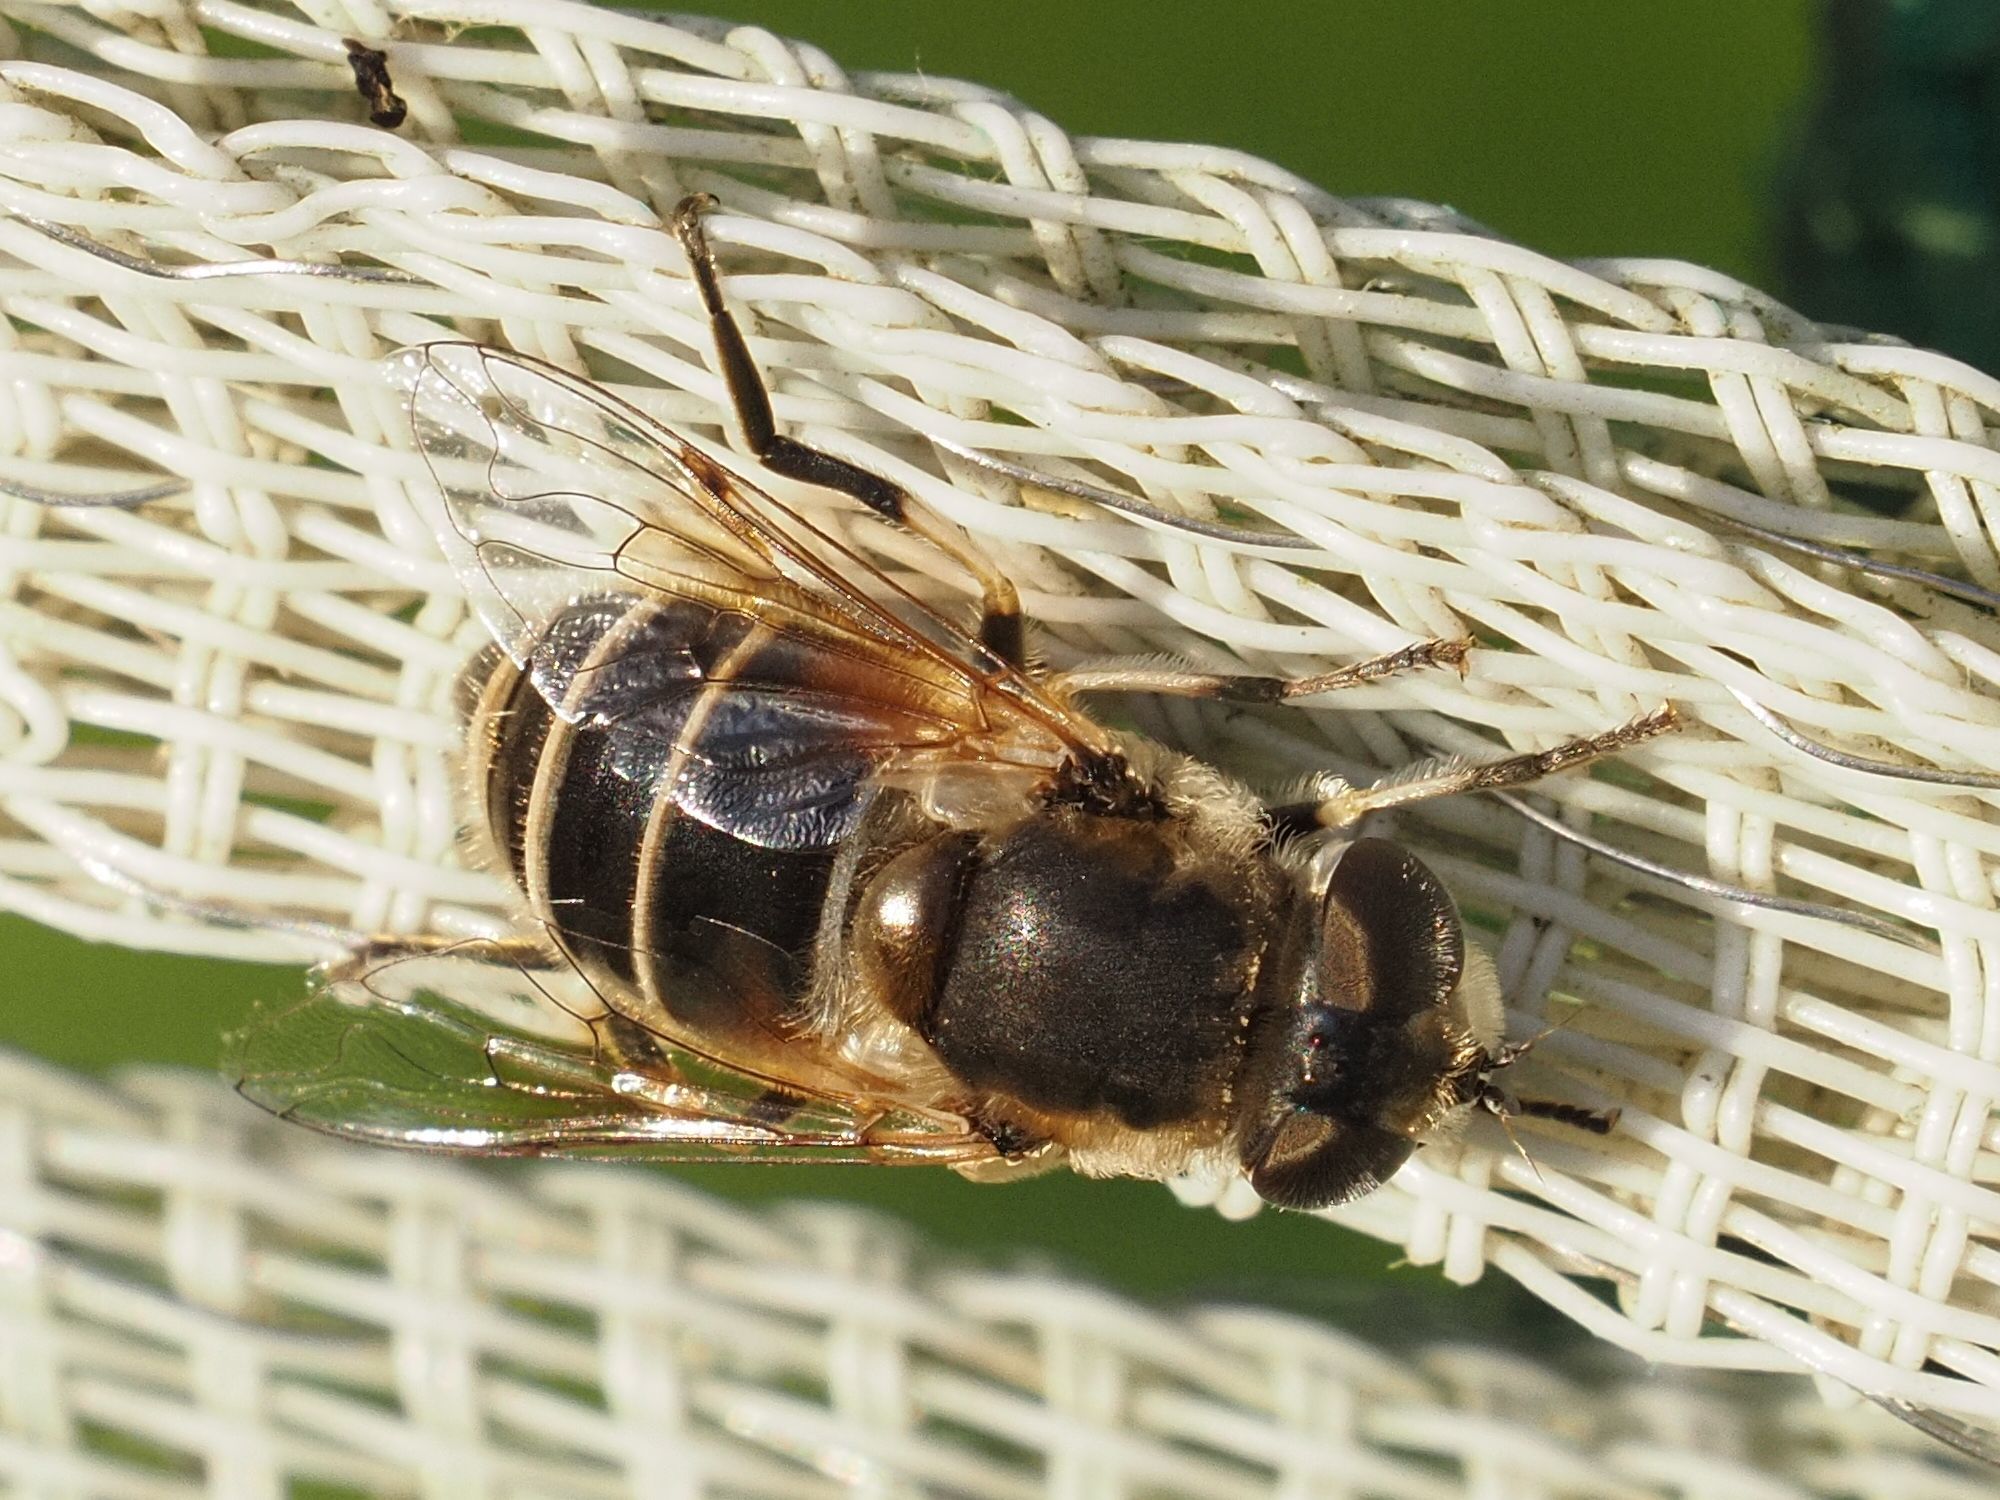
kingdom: Animalia
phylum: Arthropoda
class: Insecta
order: Diptera
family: Syrphidae
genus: Eristalis
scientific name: Eristalis arbustorum
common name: Hover fly
